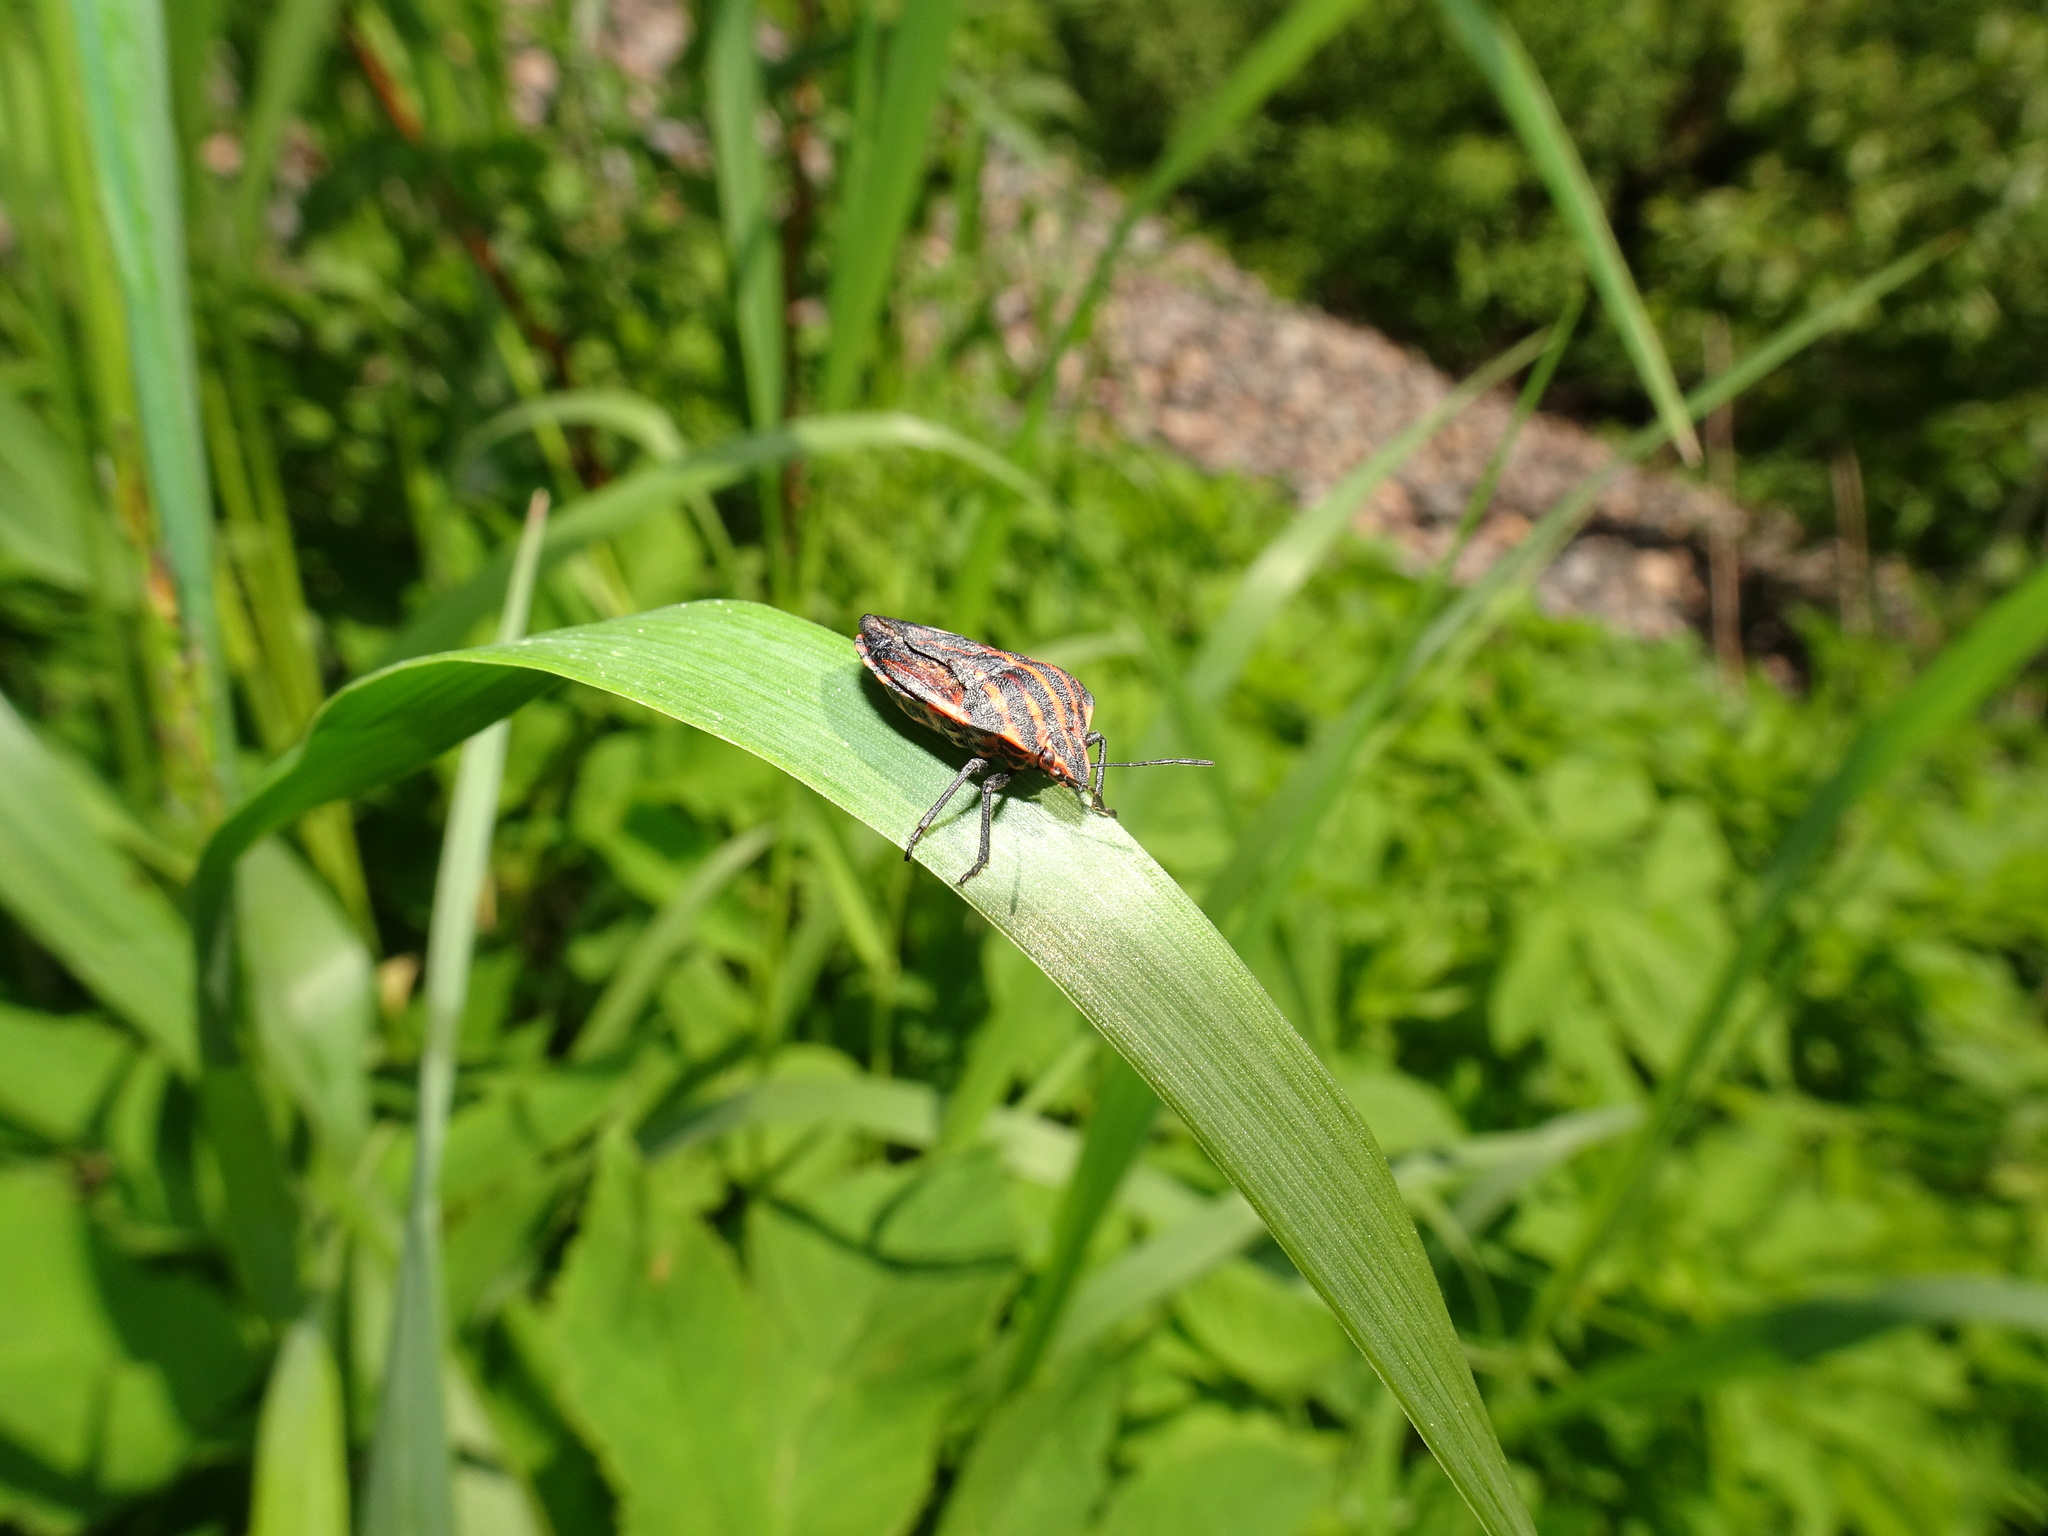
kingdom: Animalia
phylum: Arthropoda
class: Insecta
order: Hemiptera
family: Pentatomidae
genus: Graphosoma
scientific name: Graphosoma italicum
